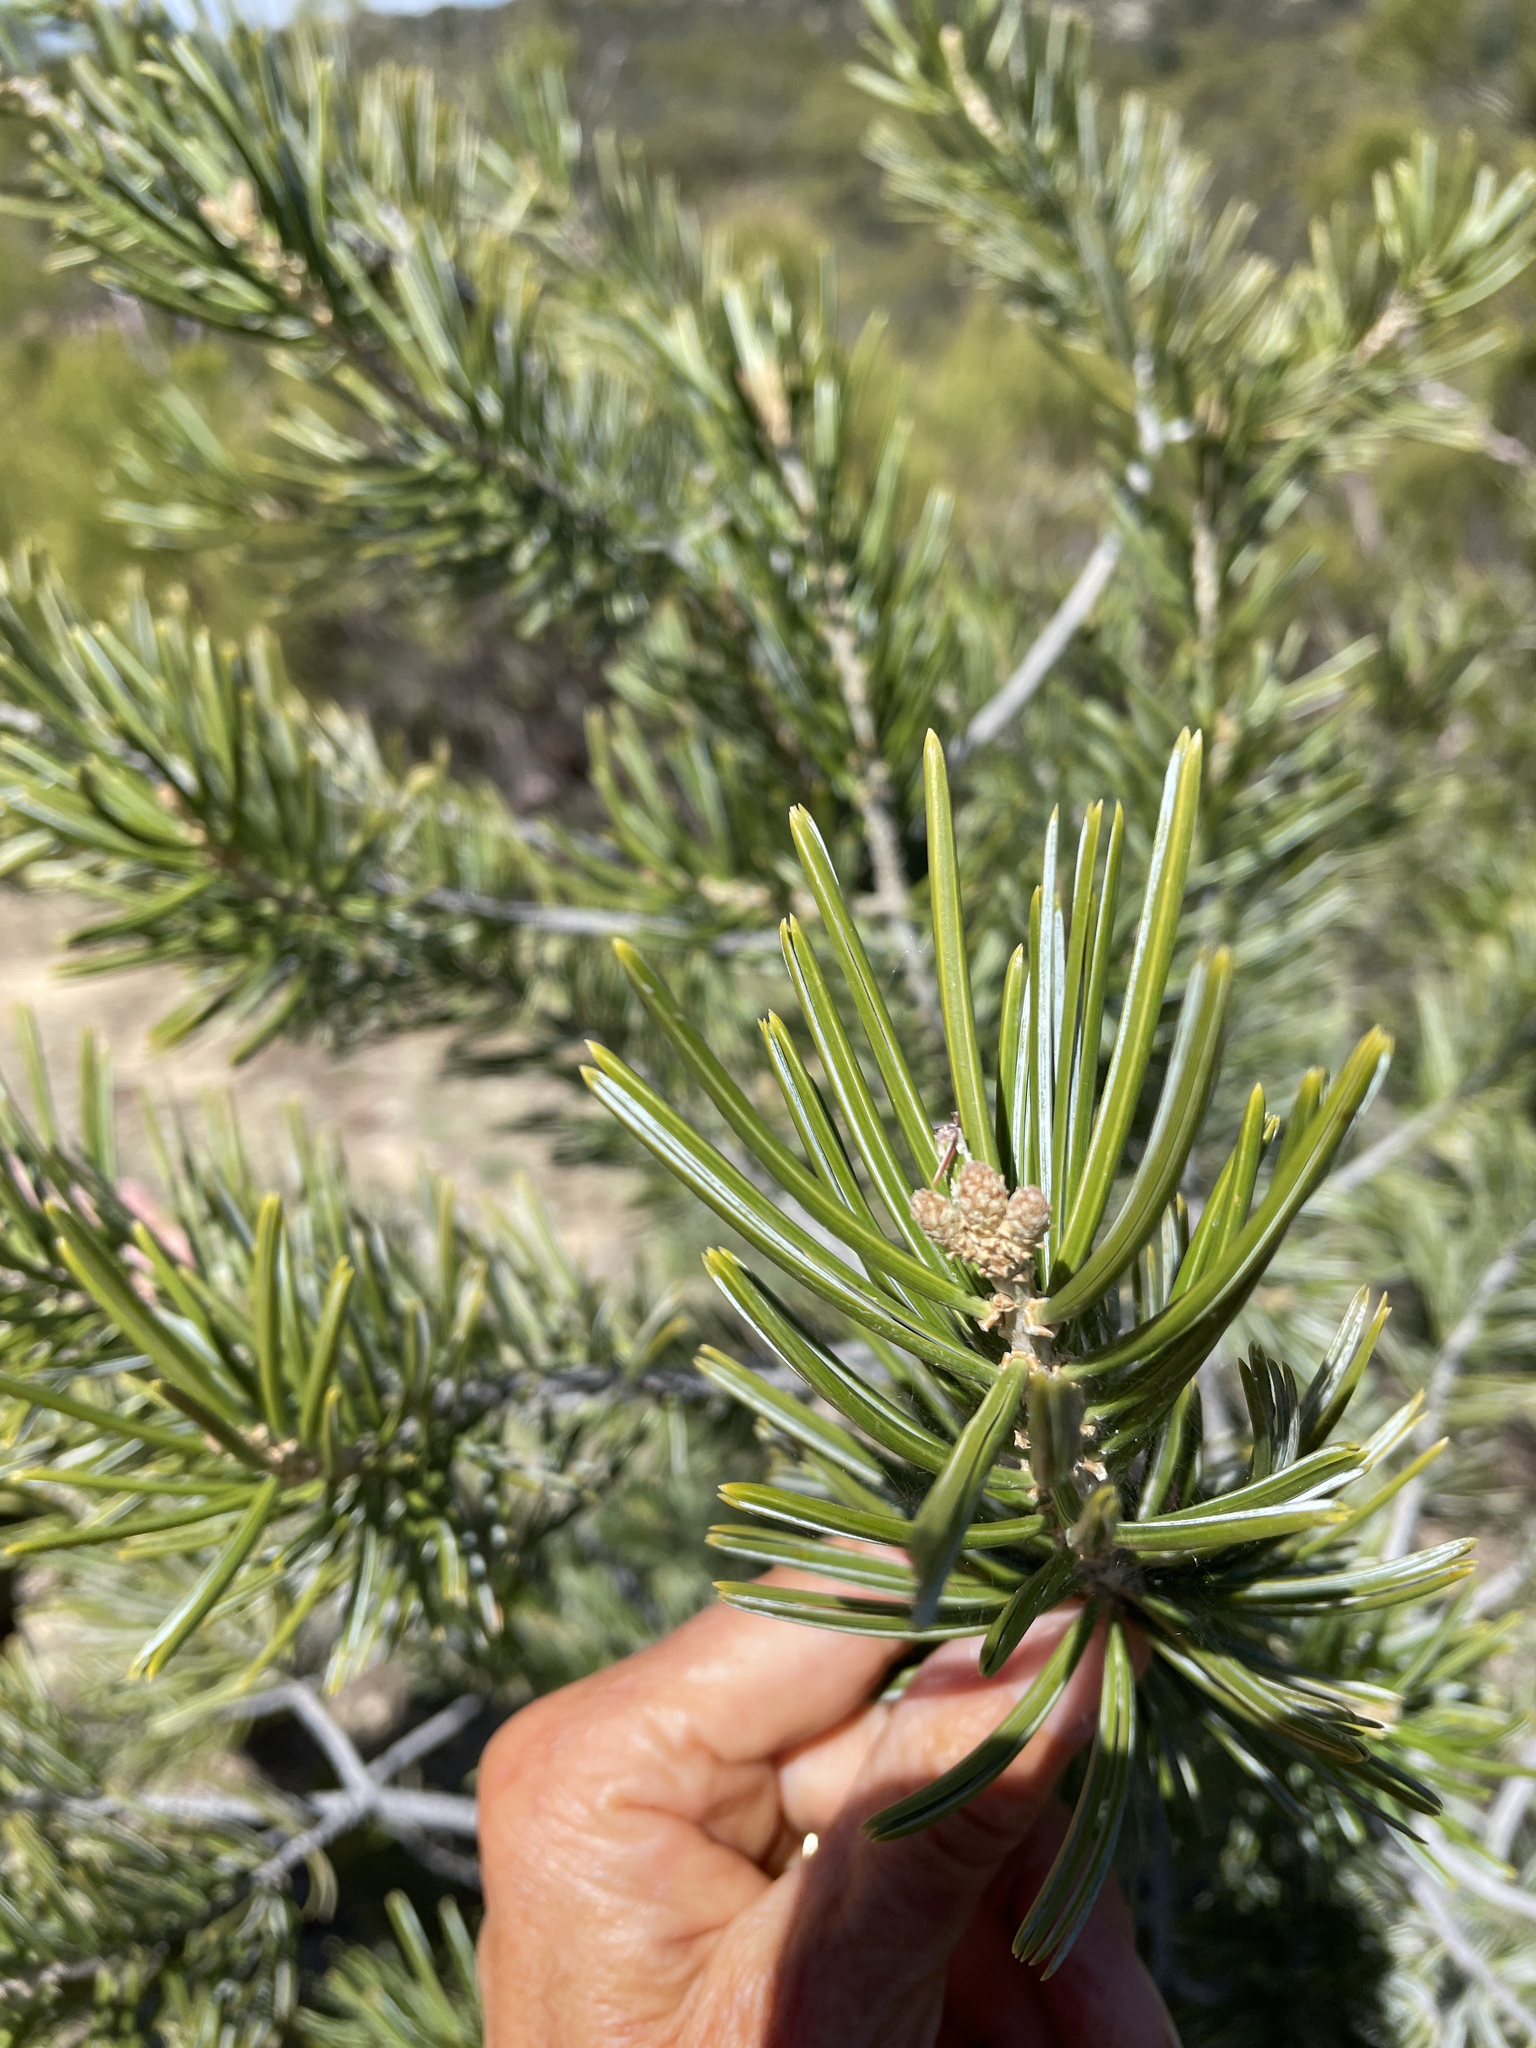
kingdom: Plantae
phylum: Tracheophyta
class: Pinopsida
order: Pinales
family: Pinaceae
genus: Pinus
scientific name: Pinus quadrifolia
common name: Parry pinyon
